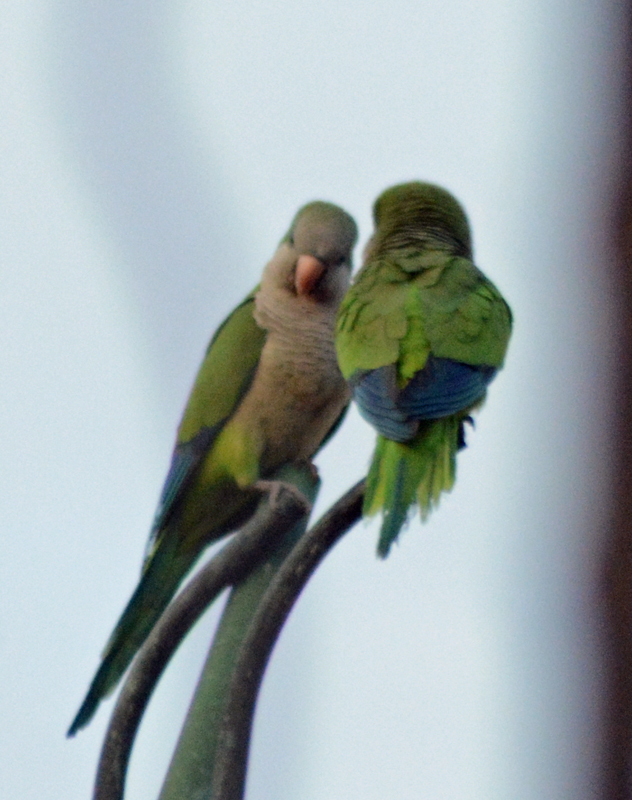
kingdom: Animalia
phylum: Chordata
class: Aves
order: Psittaciformes
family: Psittacidae
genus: Myiopsitta
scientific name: Myiopsitta monachus
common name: Monk parakeet
